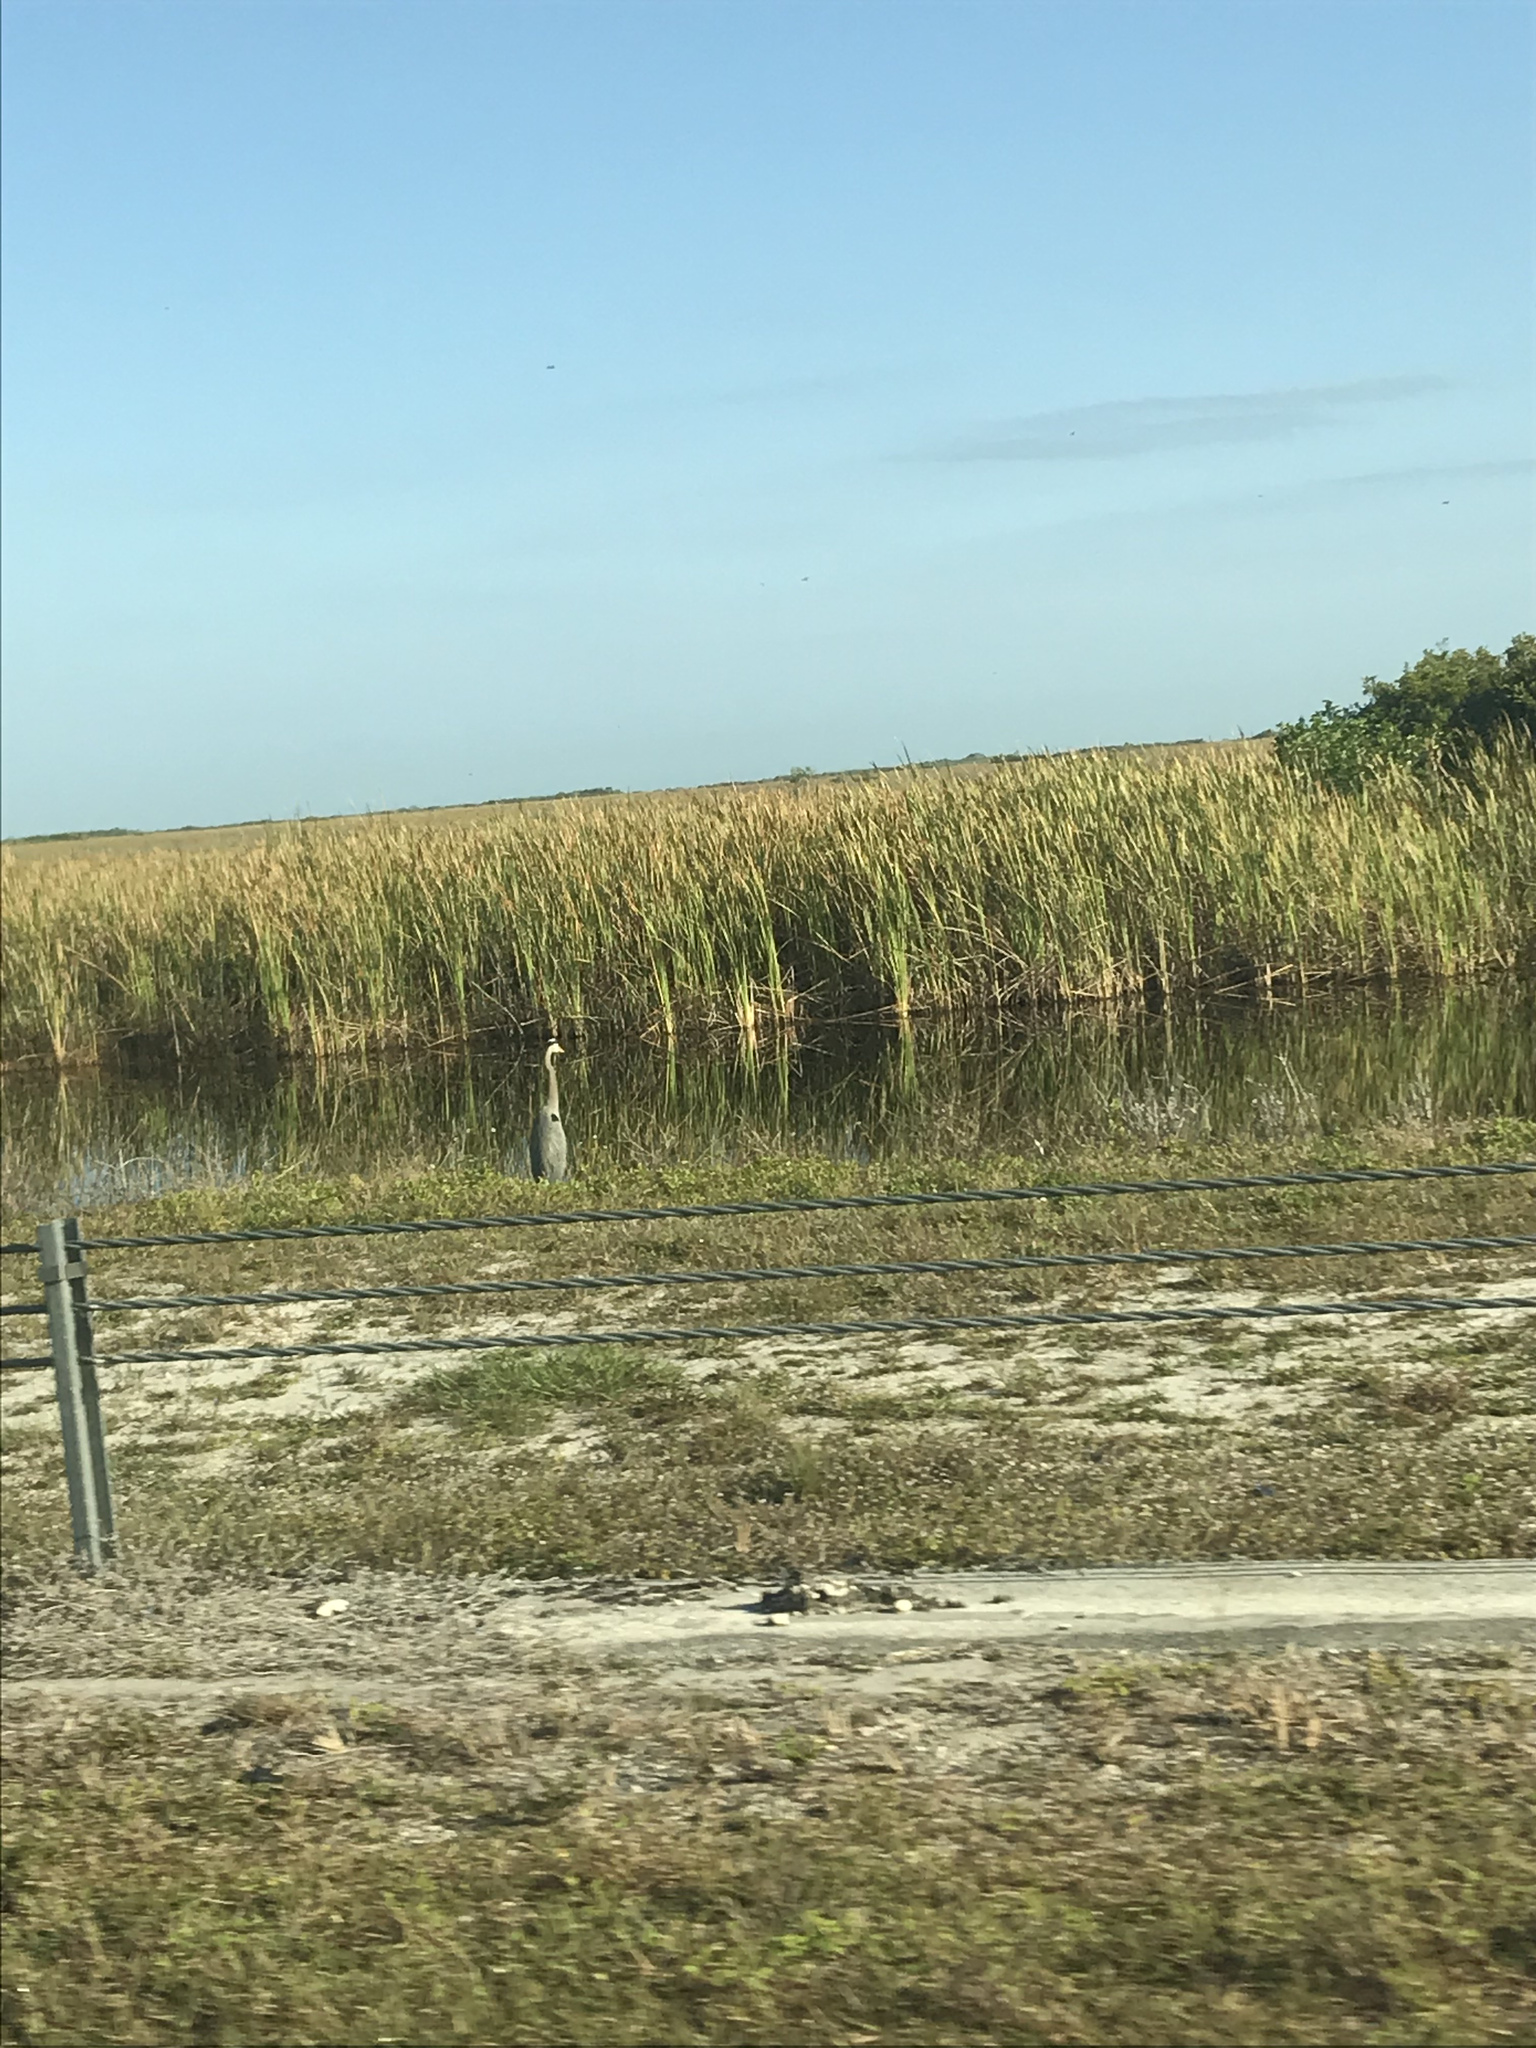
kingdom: Animalia
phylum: Chordata
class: Aves
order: Pelecaniformes
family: Ardeidae
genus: Ardea
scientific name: Ardea herodias
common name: Great blue heron
